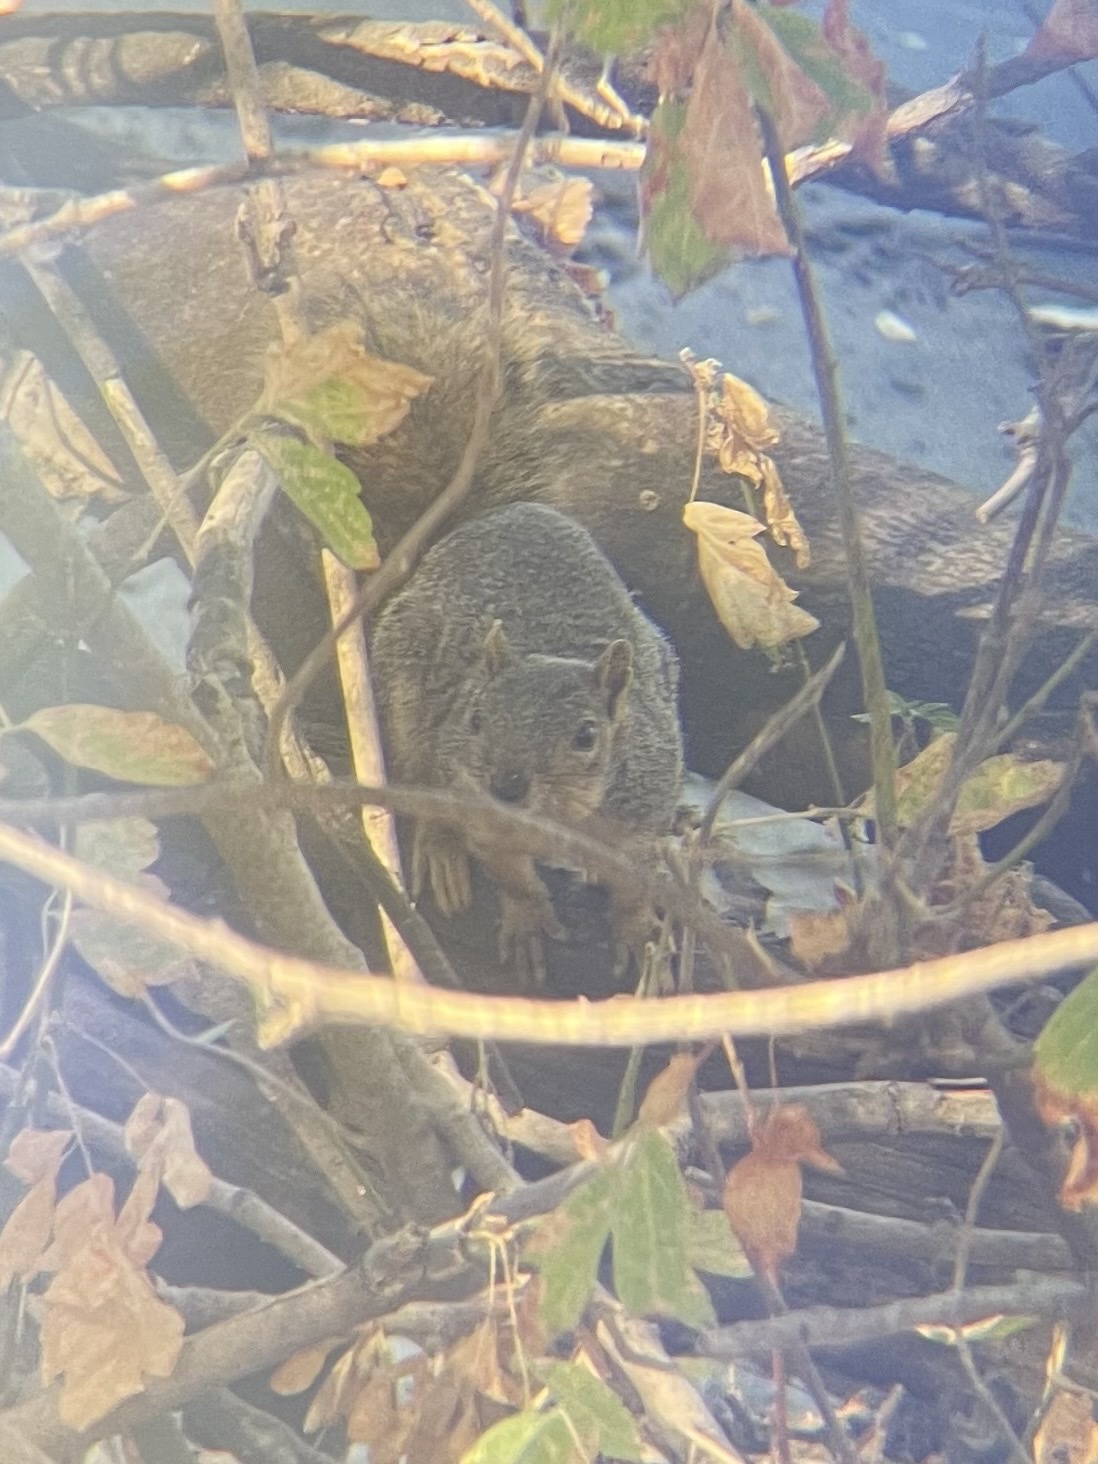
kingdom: Animalia
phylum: Chordata
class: Mammalia
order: Rodentia
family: Sciuridae
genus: Sciurus
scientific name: Sciurus niger
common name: Fox squirrel
